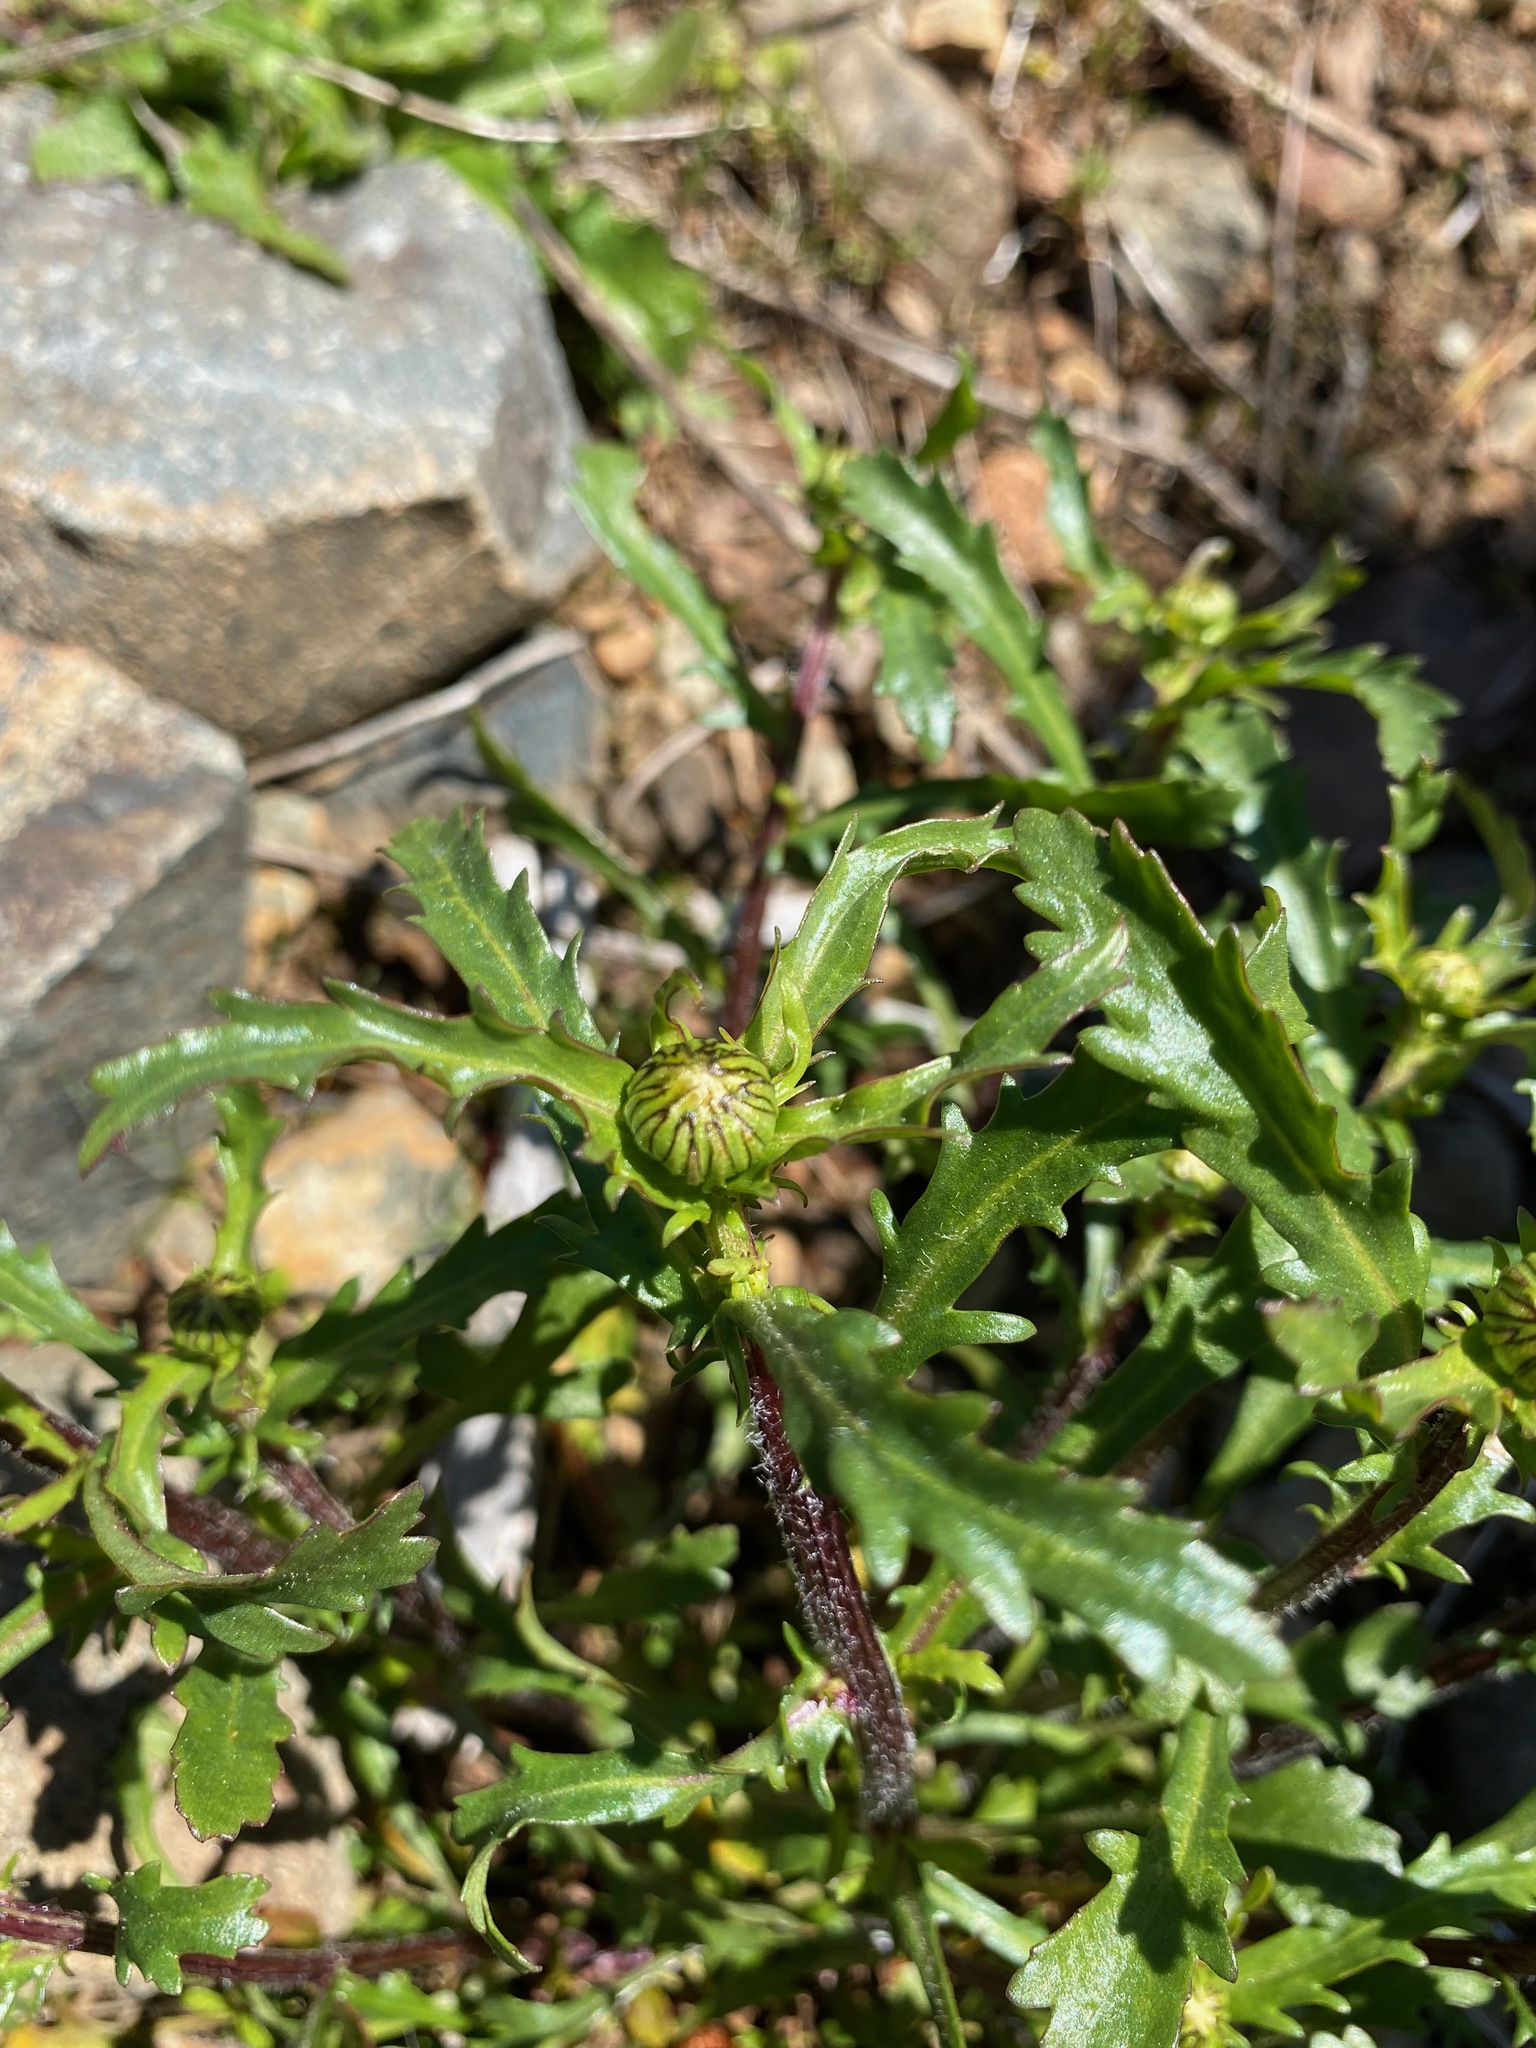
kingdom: Plantae
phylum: Tracheophyta
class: Magnoliopsida
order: Asterales
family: Asteraceae
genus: Leucanthemum
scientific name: Leucanthemum vulgare
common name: Oxeye daisy
